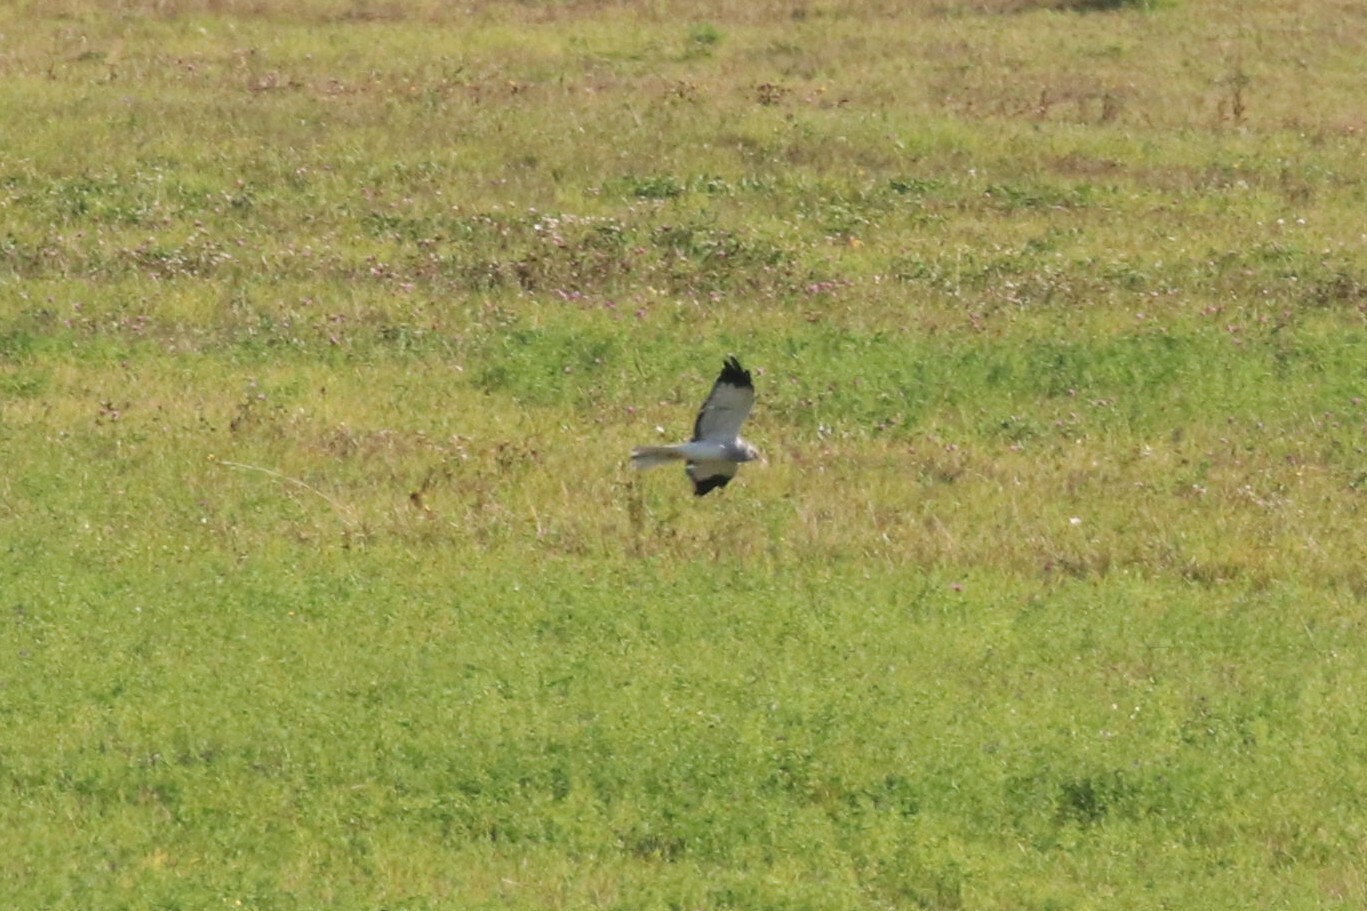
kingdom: Animalia
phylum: Chordata
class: Aves
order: Accipitriformes
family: Accipitridae
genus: Circus
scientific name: Circus cyaneus
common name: Hen harrier
